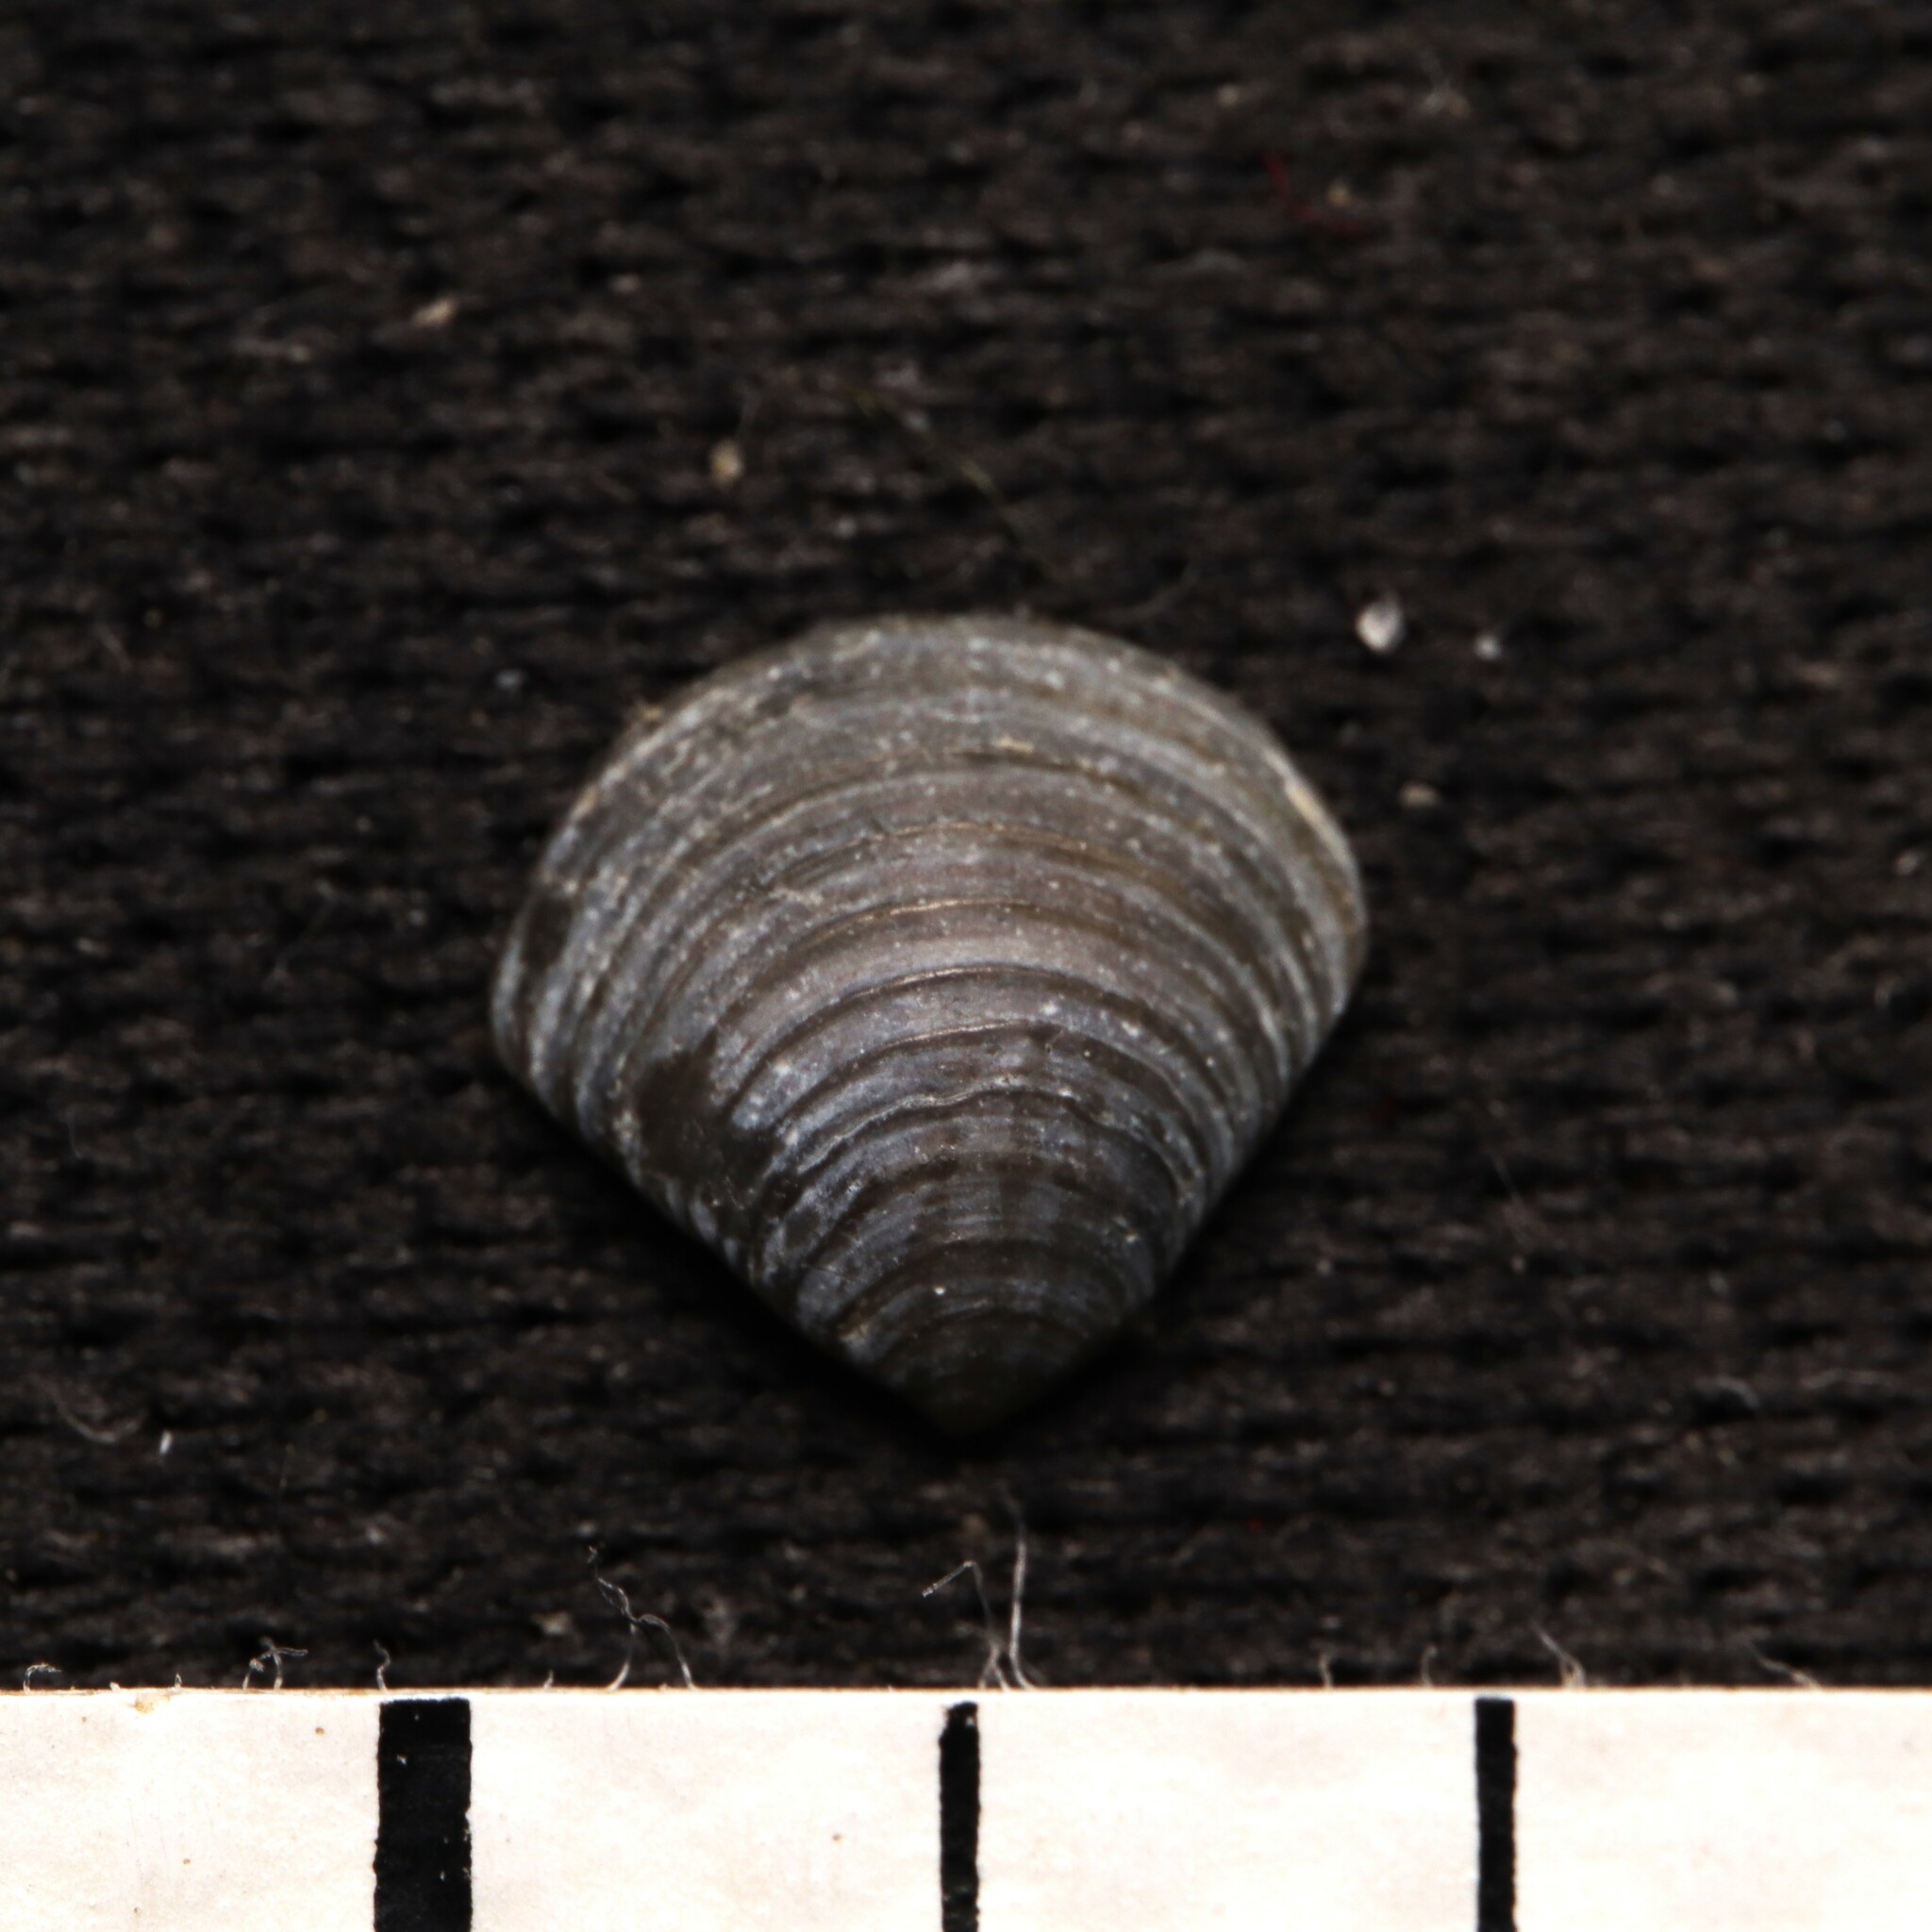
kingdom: Animalia
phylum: Mollusca
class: Bivalvia
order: Carditida
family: Crassatellidae
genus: Crassinella
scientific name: Crassinella lunulata
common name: Lunate crassinella
